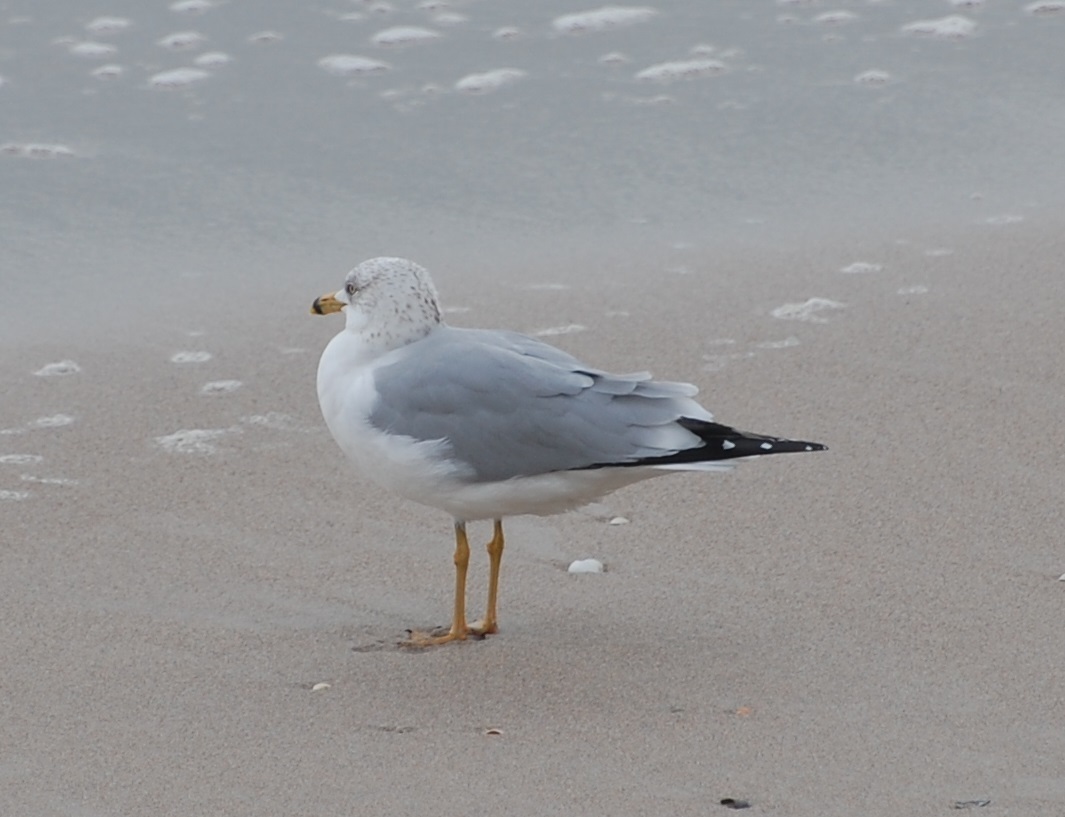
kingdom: Animalia
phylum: Chordata
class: Aves
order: Charadriiformes
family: Laridae
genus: Larus
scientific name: Larus delawarensis
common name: Ring-billed gull
